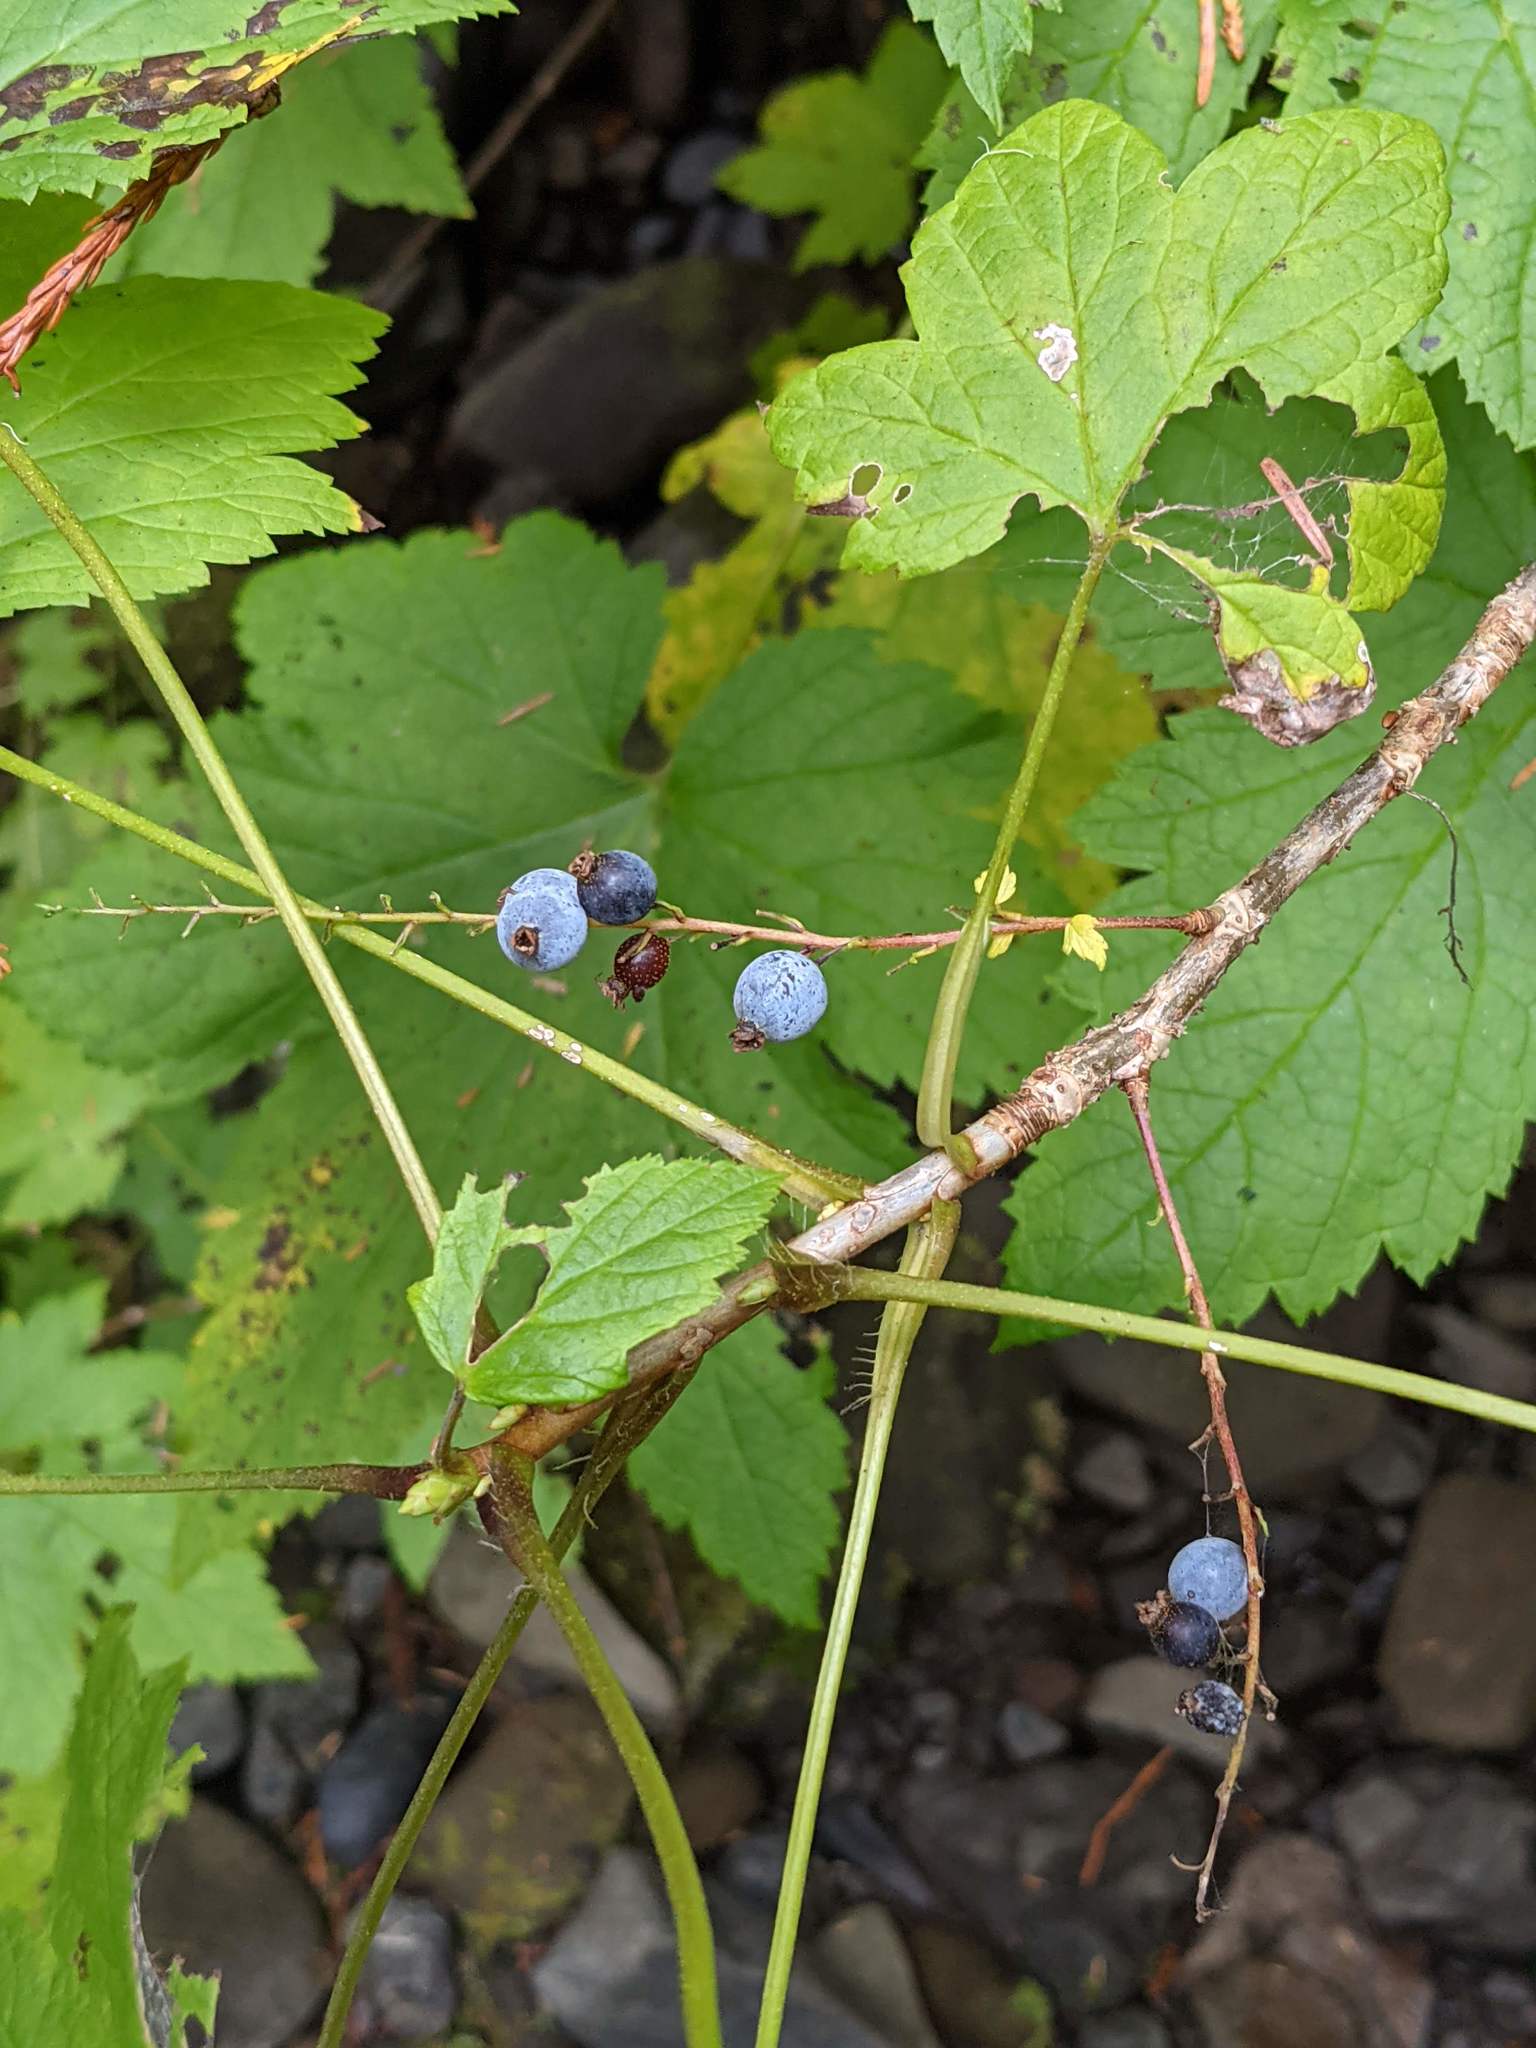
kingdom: Plantae
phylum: Tracheophyta
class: Magnoliopsida
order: Saxifragales
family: Grossulariaceae
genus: Ribes
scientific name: Ribes bracteosum
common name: California black currant
